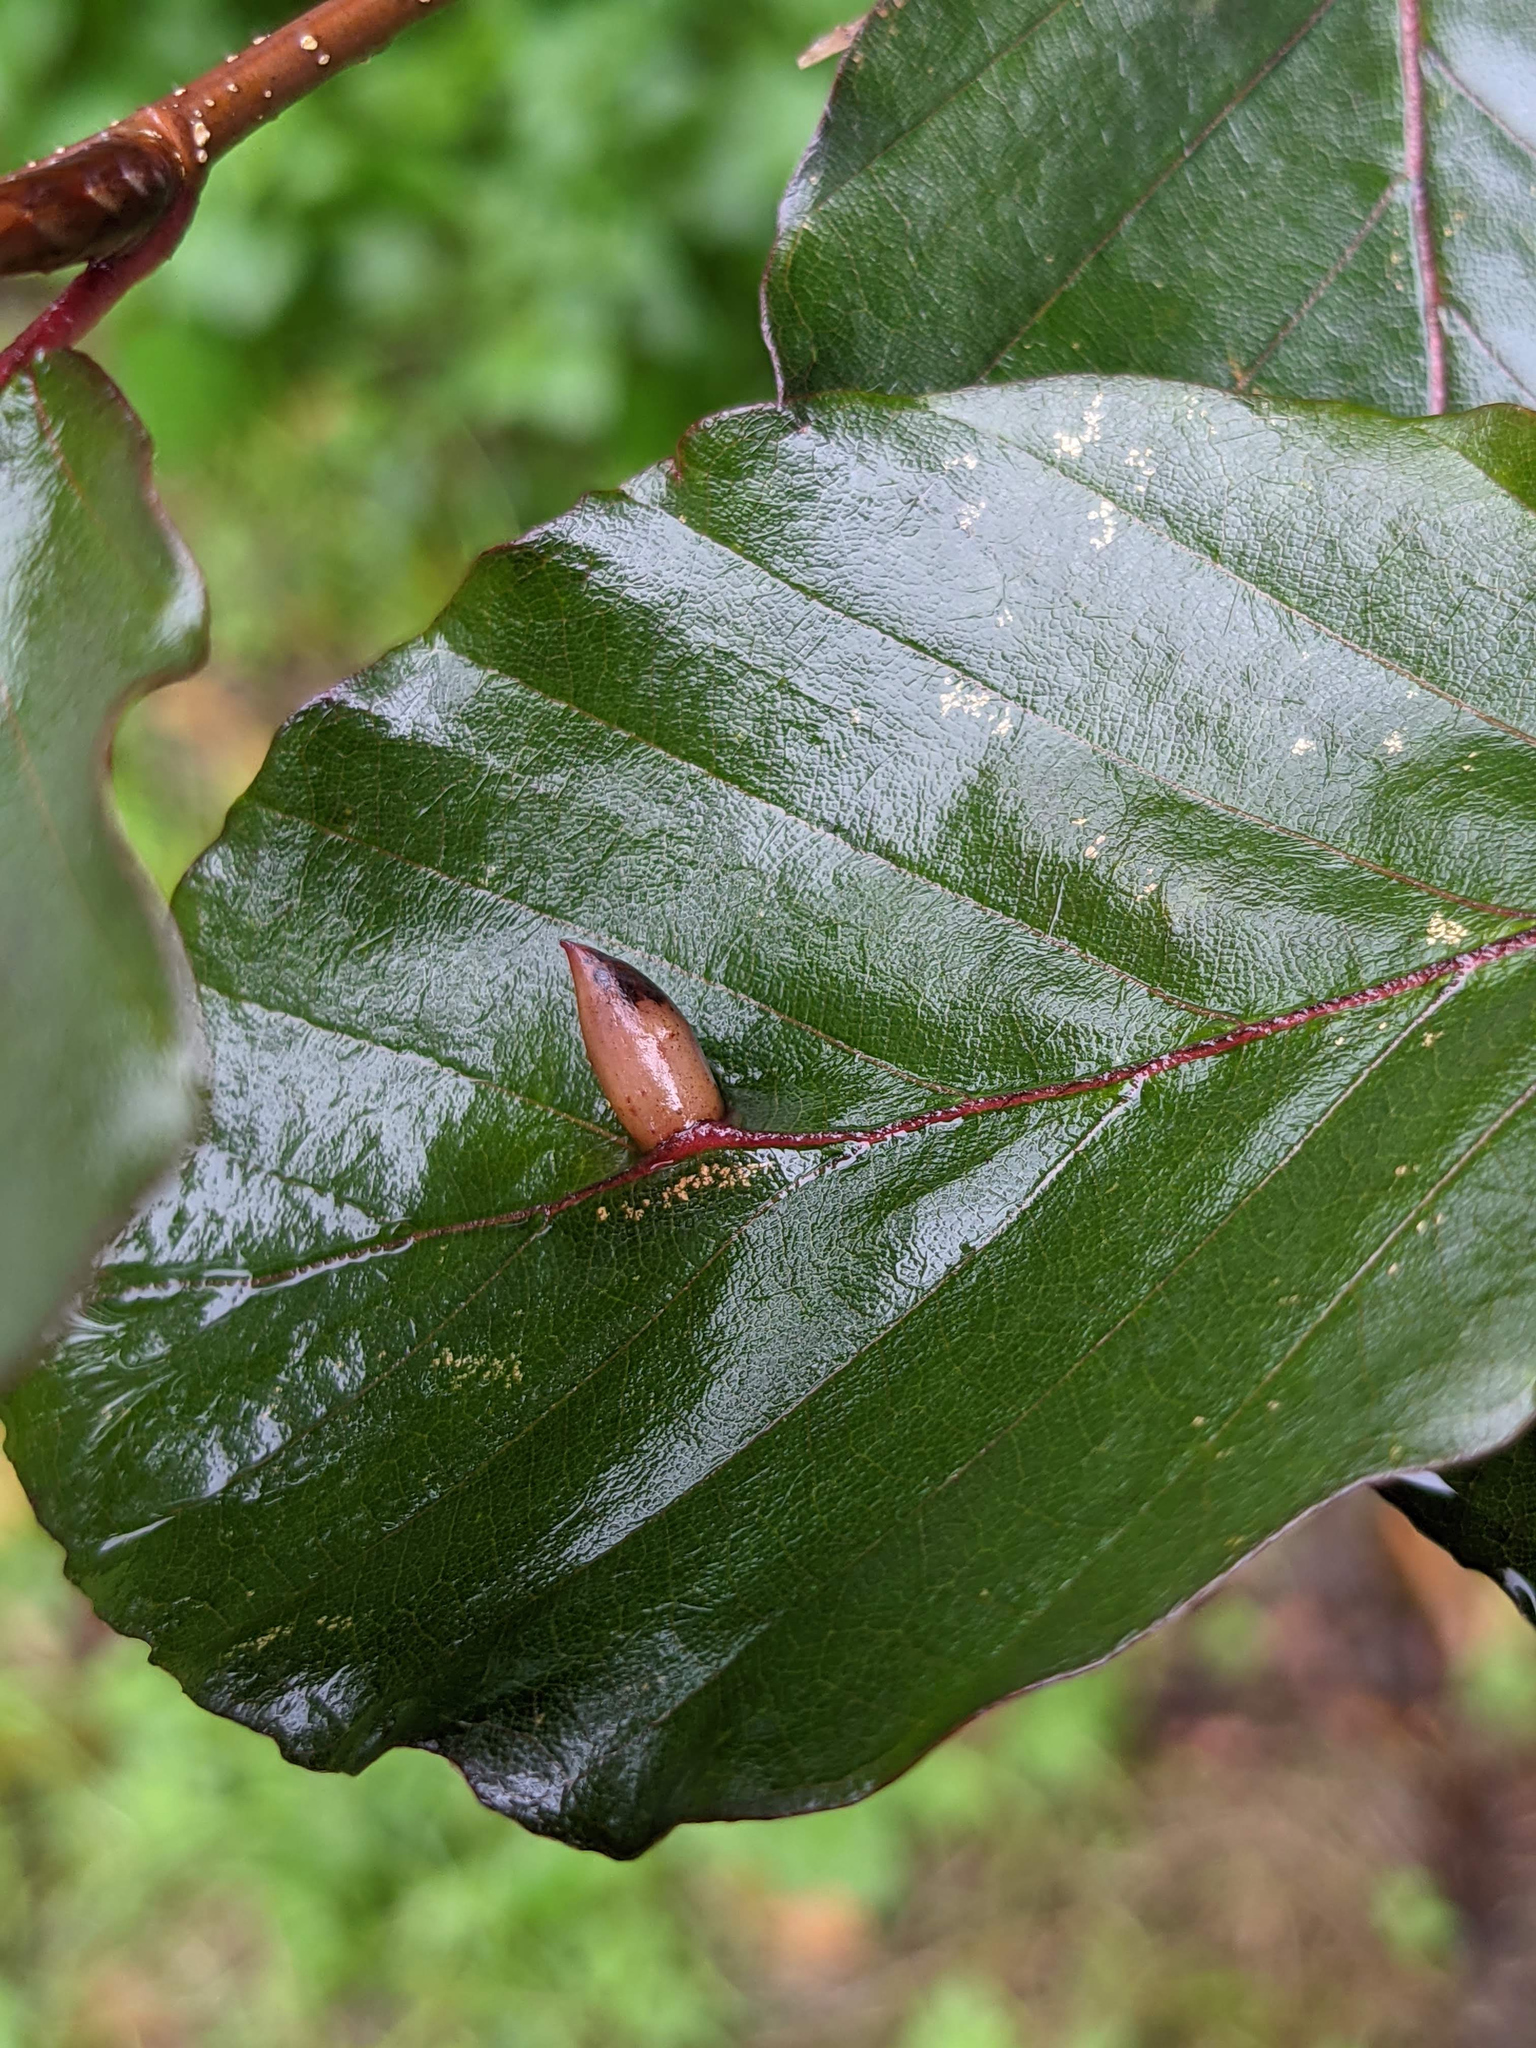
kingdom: Animalia
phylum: Arthropoda
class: Insecta
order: Diptera
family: Cecidomyiidae
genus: Mikiola
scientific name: Mikiola fagi
